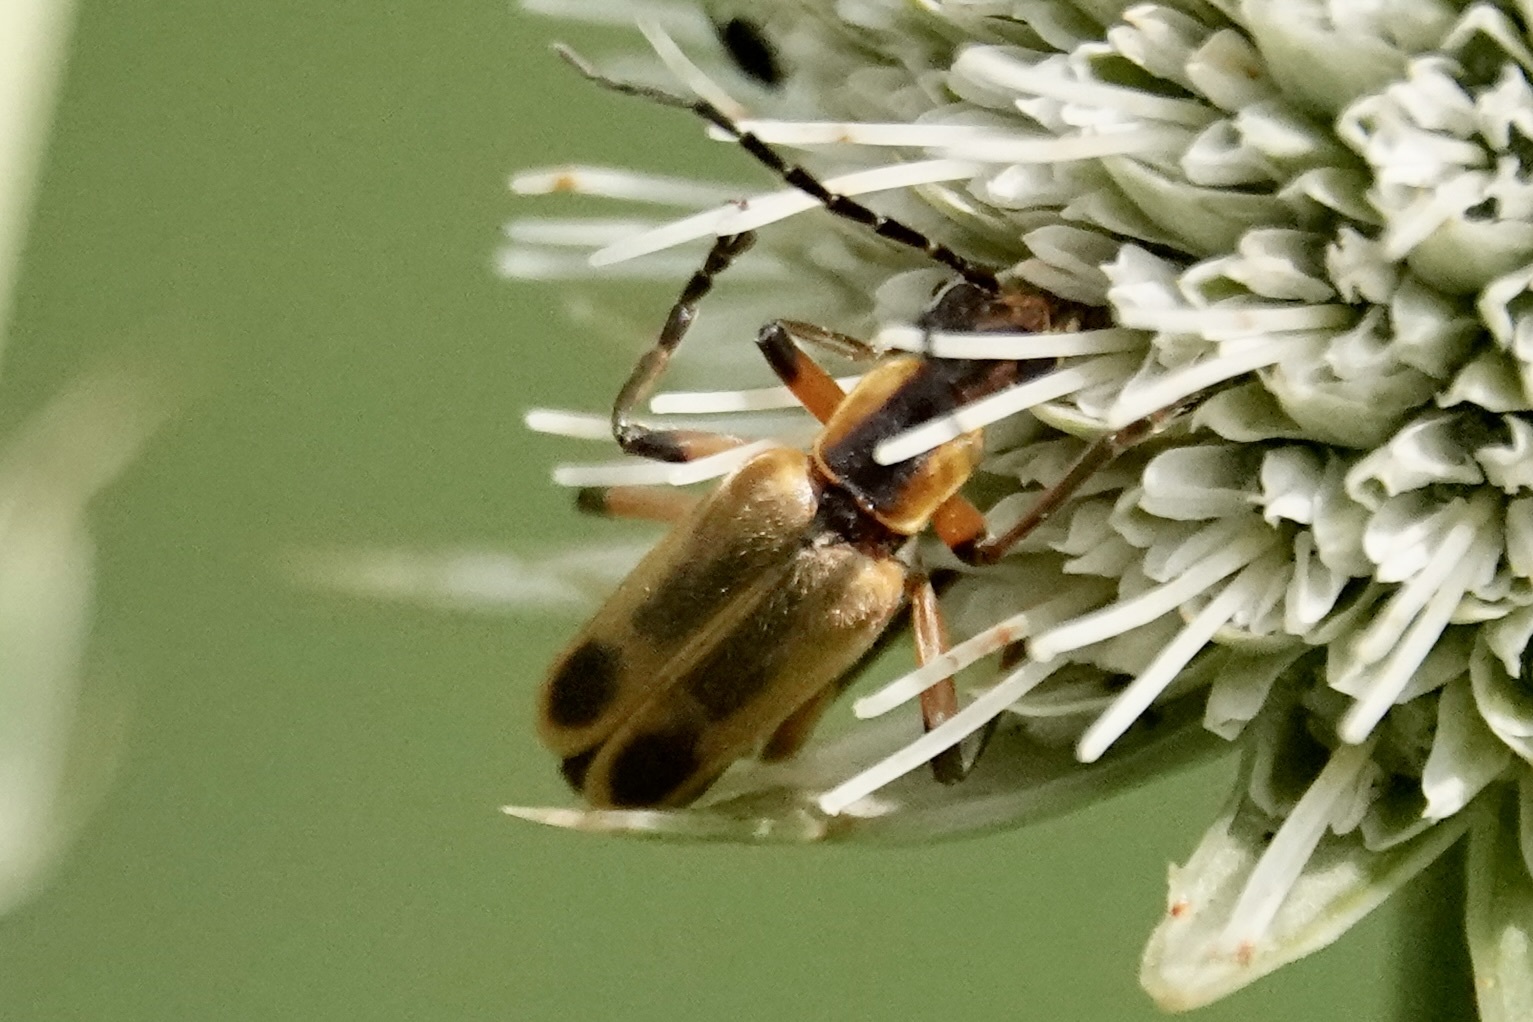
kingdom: Animalia
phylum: Arthropoda
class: Insecta
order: Coleoptera
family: Cantharidae
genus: Chauliognathus
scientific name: Chauliognathus marginatus
